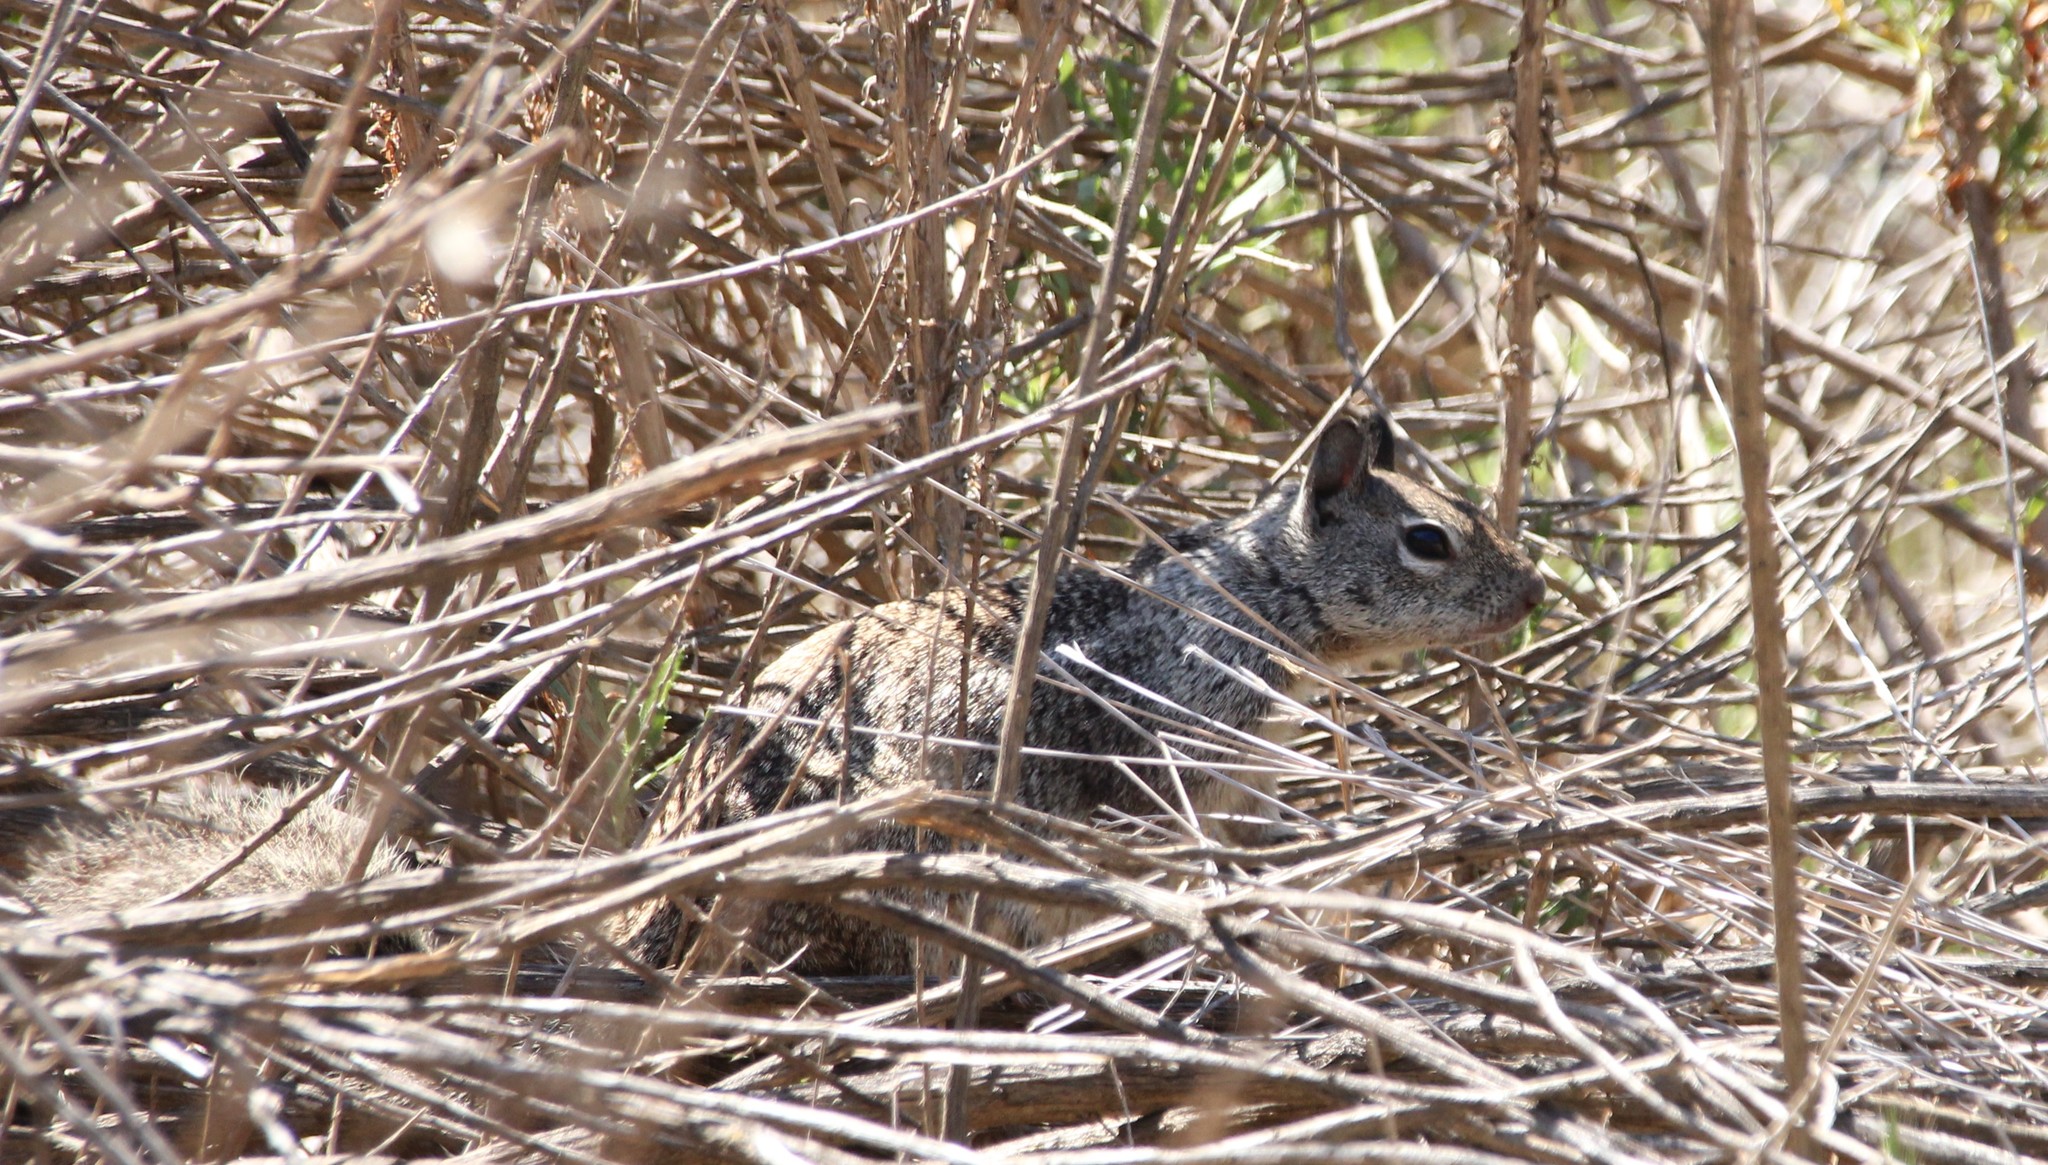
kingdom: Animalia
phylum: Chordata
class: Mammalia
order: Rodentia
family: Sciuridae
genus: Otospermophilus
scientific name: Otospermophilus beecheyi
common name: California ground squirrel
